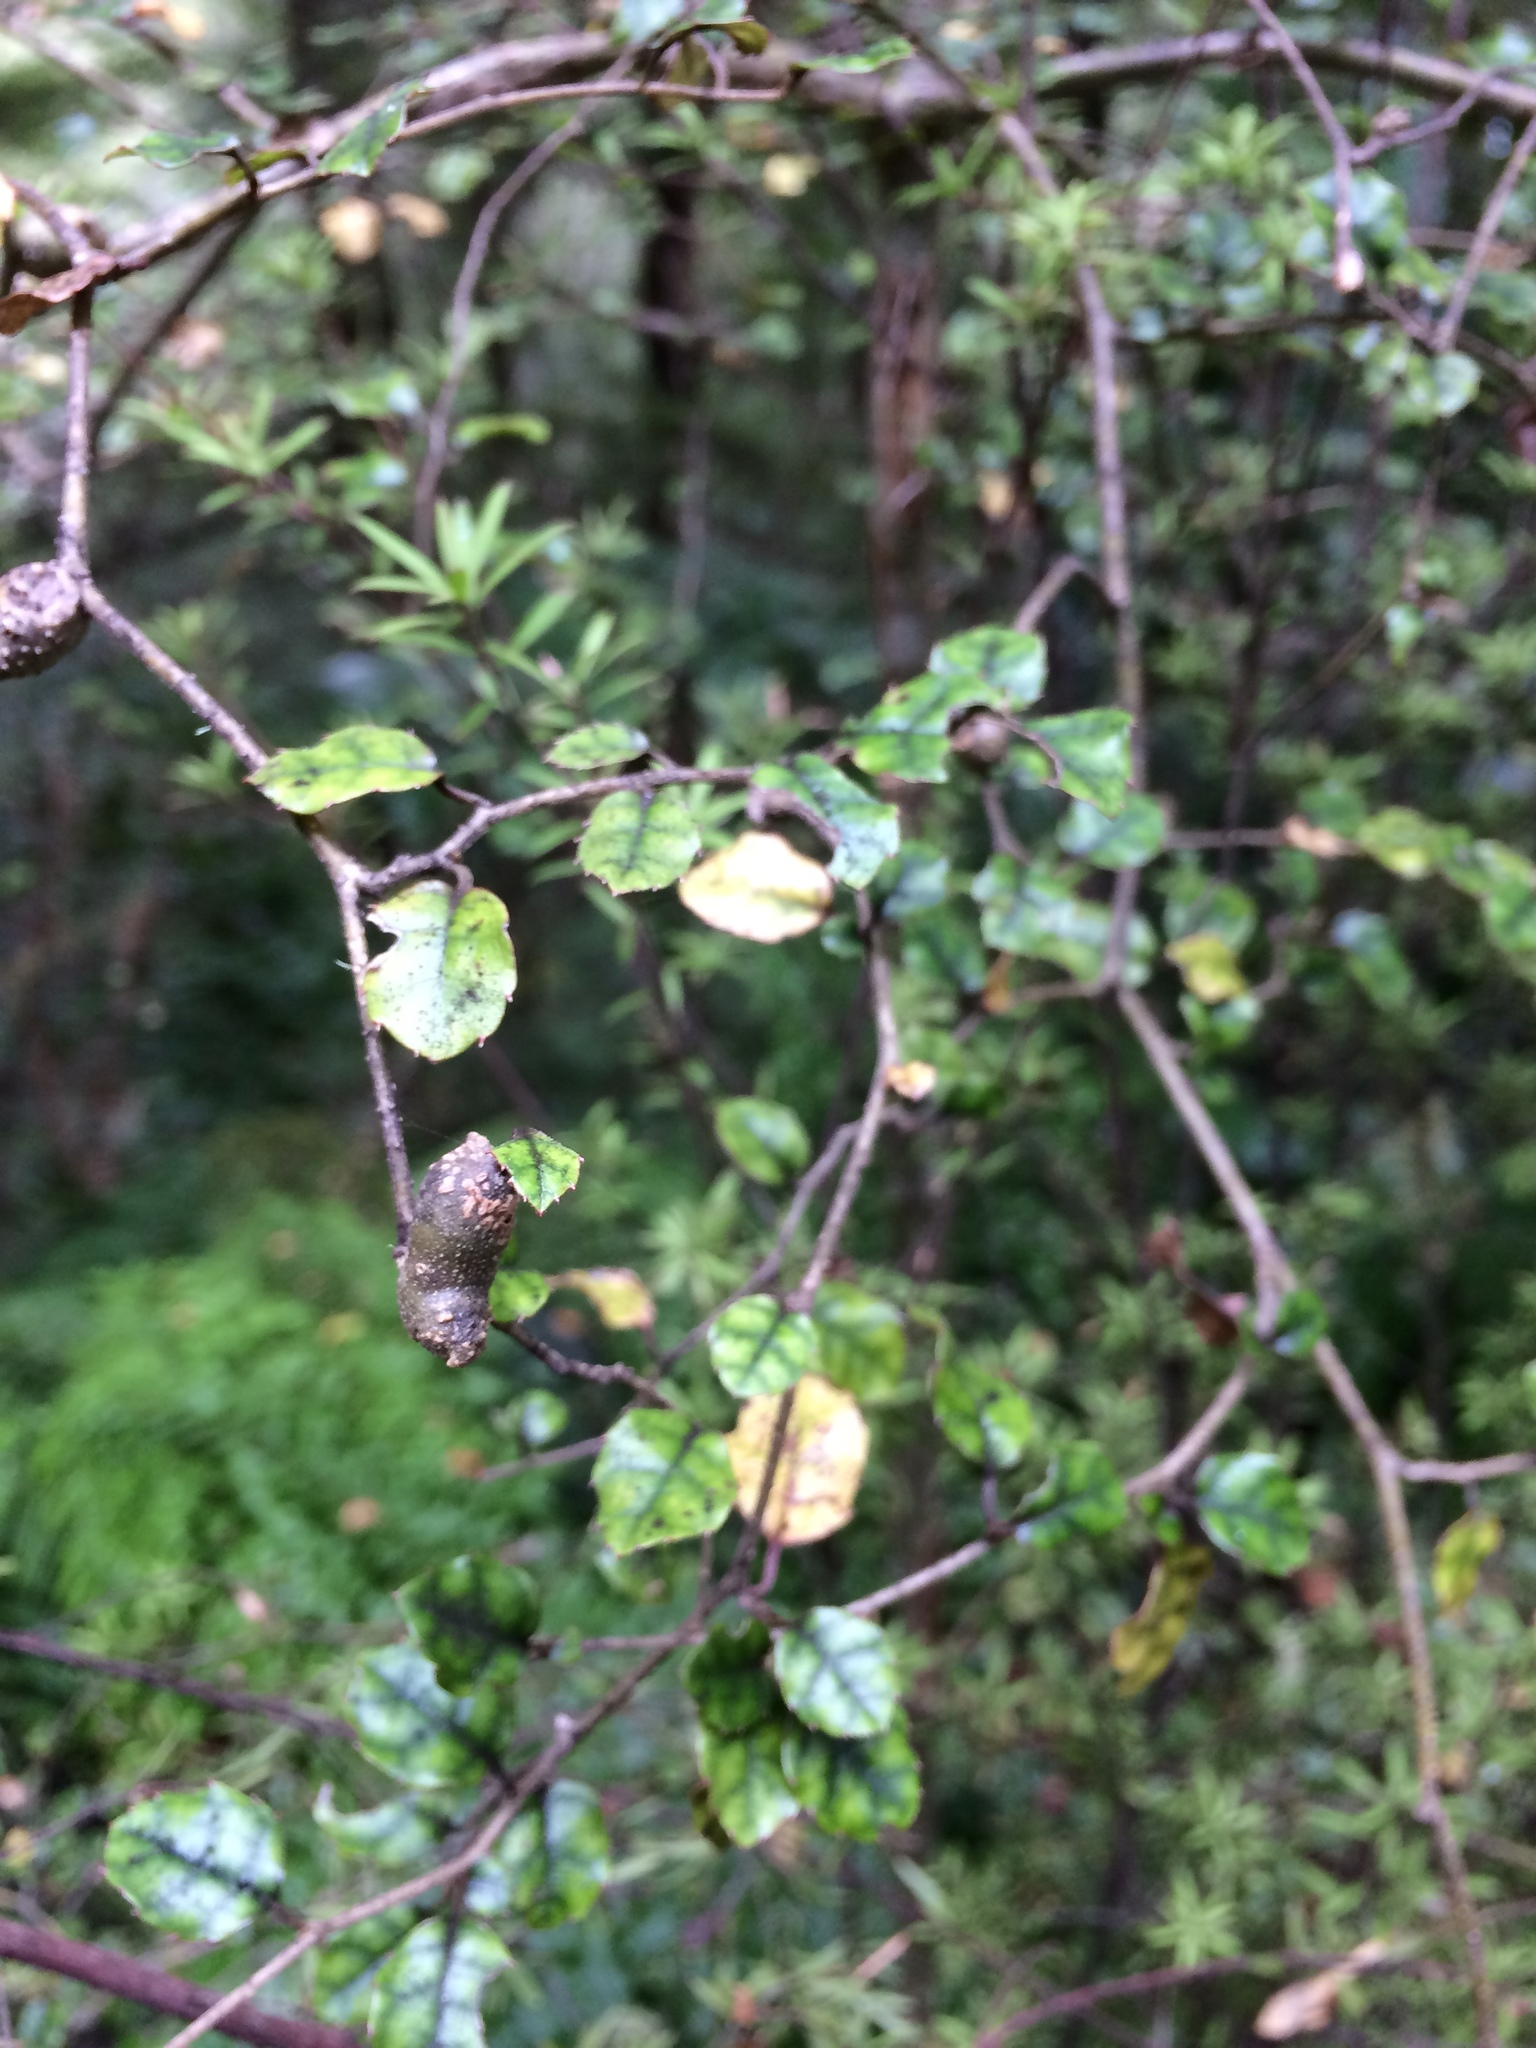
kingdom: Plantae
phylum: Tracheophyta
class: Magnoliopsida
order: Asterales
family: Rousseaceae
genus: Carpodetus
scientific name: Carpodetus serratus
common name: White mapau
